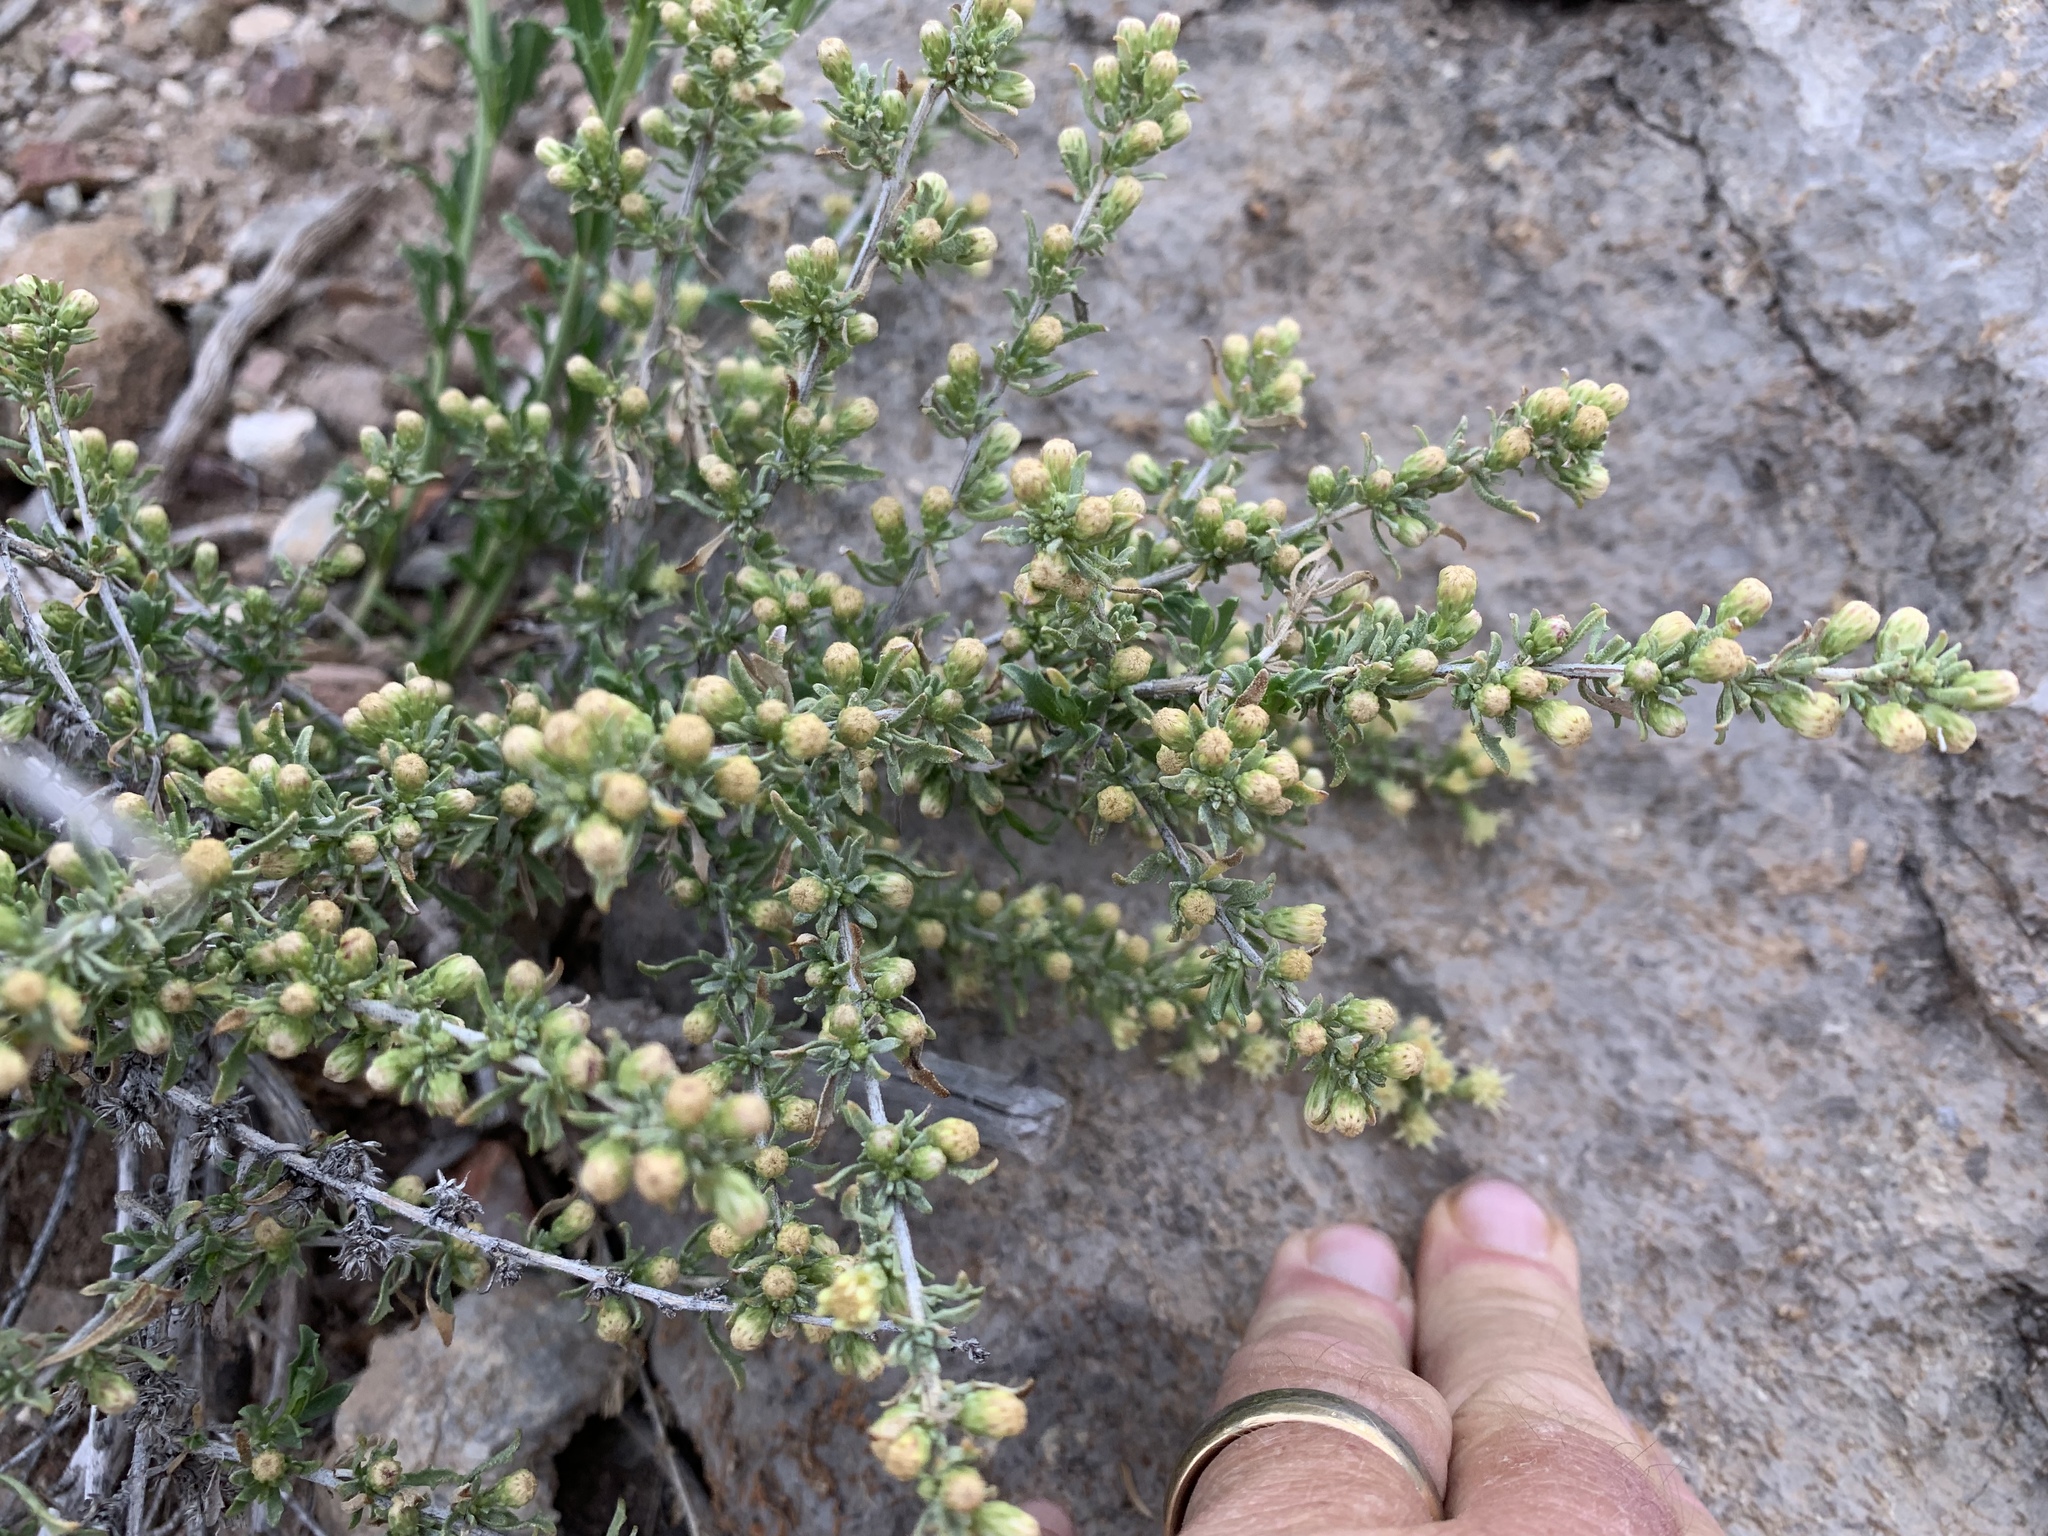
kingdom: Plantae
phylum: Tracheophyta
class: Magnoliopsida
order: Asterales
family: Asteraceae
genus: Baccharis
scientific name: Baccharis pteronioides
